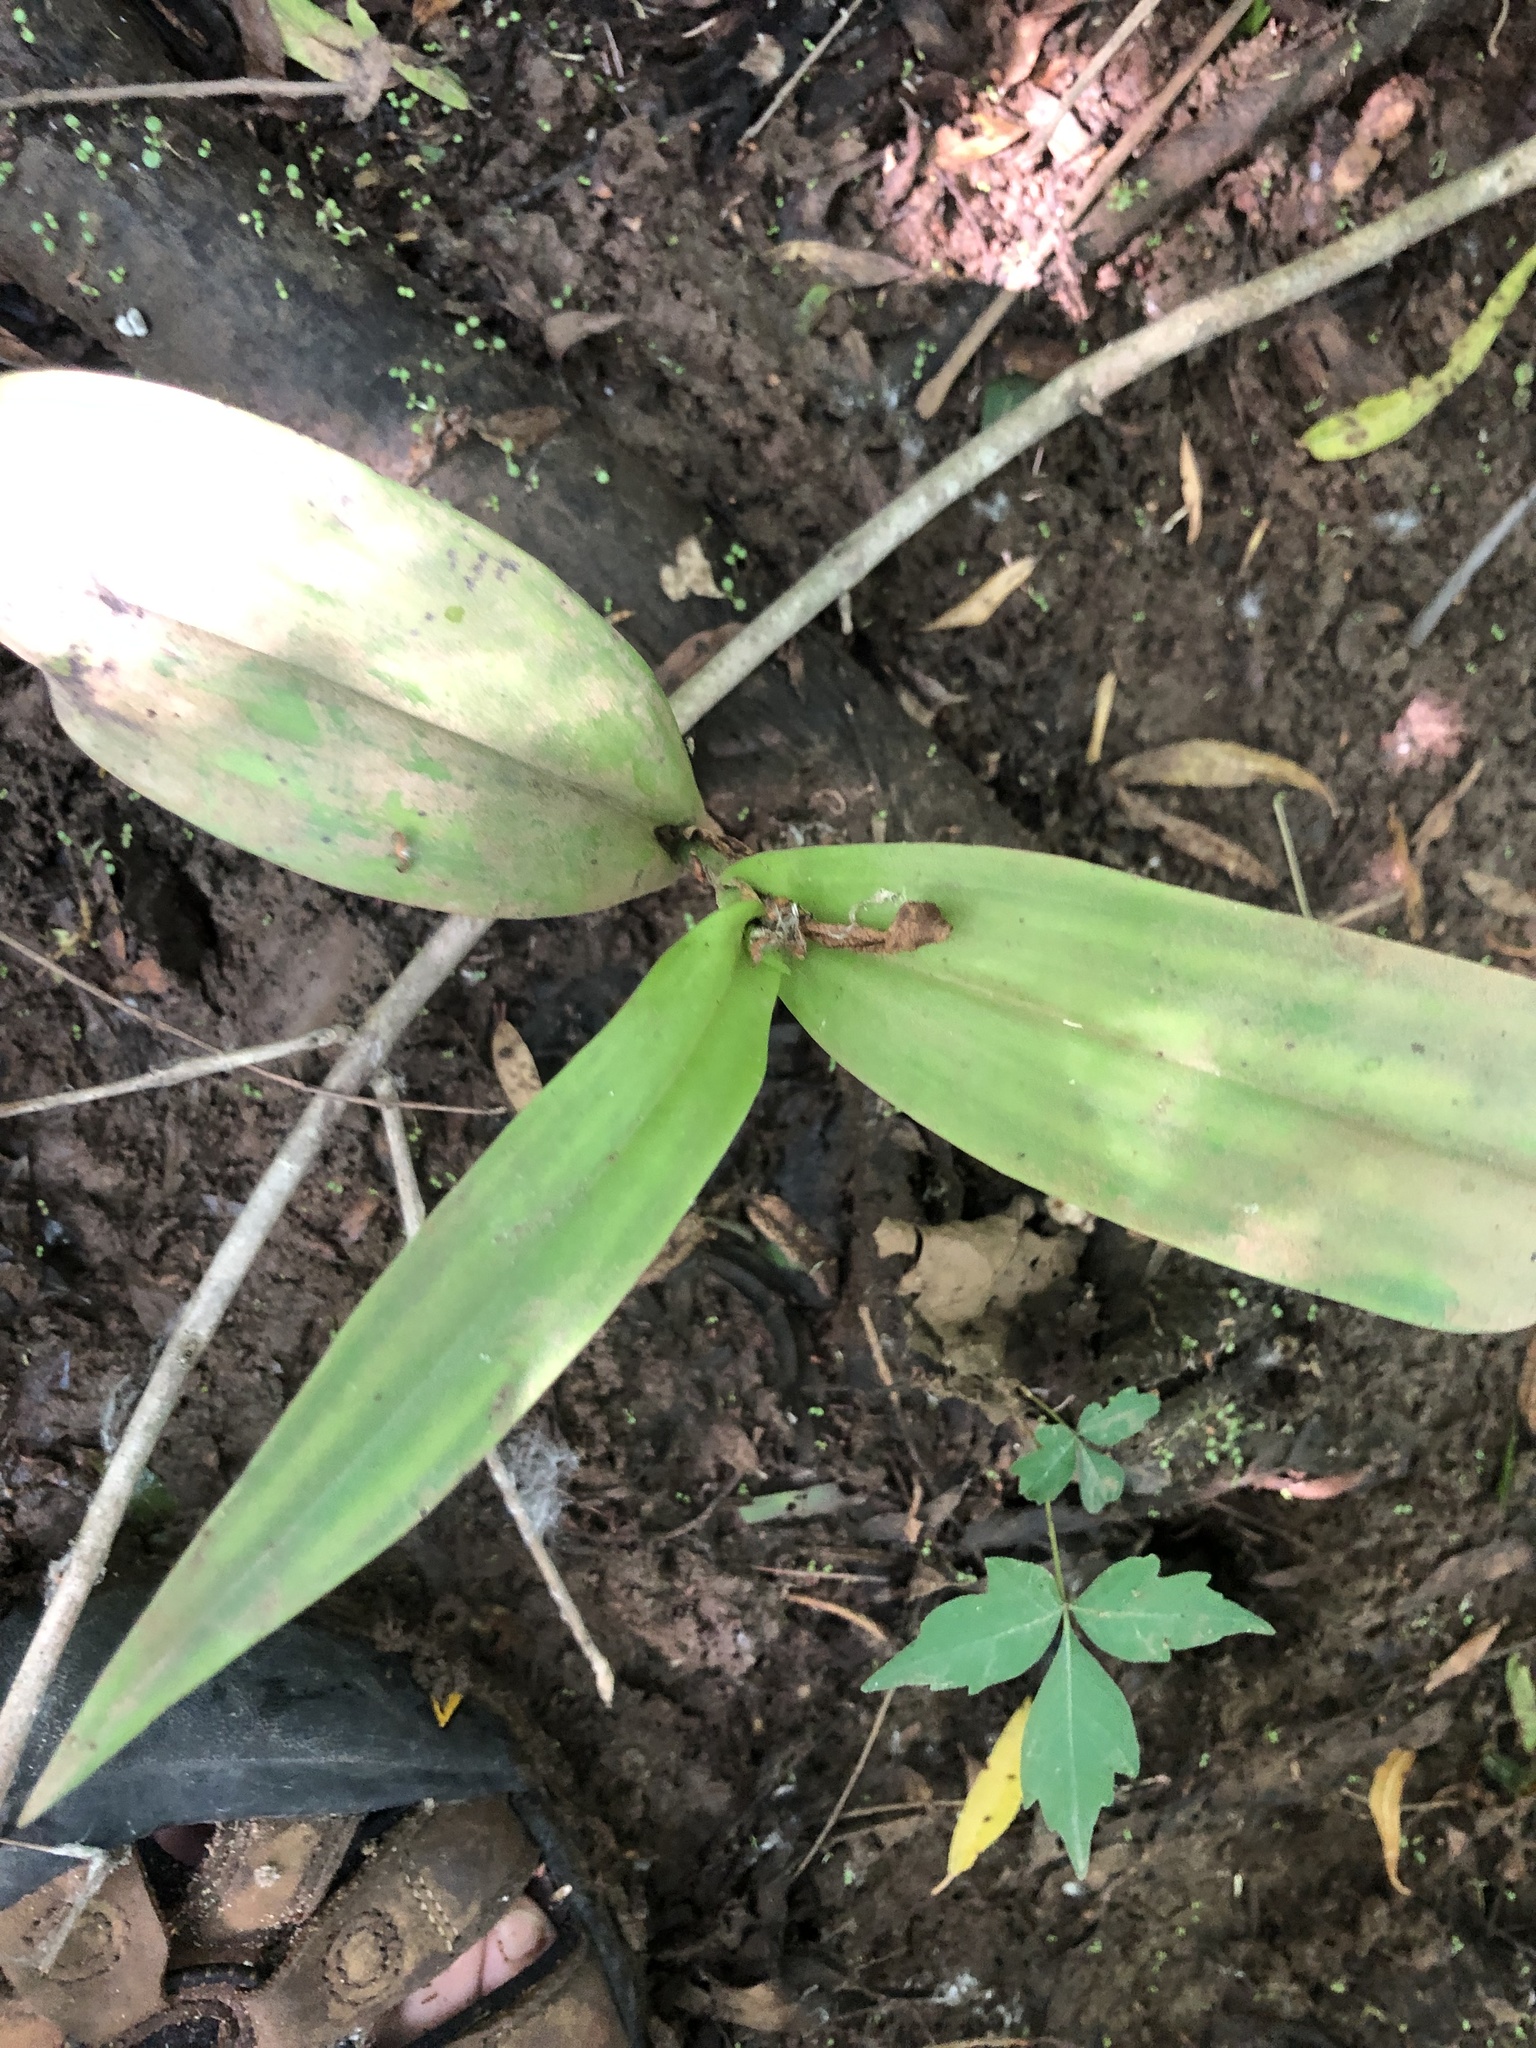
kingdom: Plantae
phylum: Tracheophyta
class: Liliopsida
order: Asparagales
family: Orchidaceae
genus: Platanthera
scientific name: Platanthera flava
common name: Gypsy-spikes
